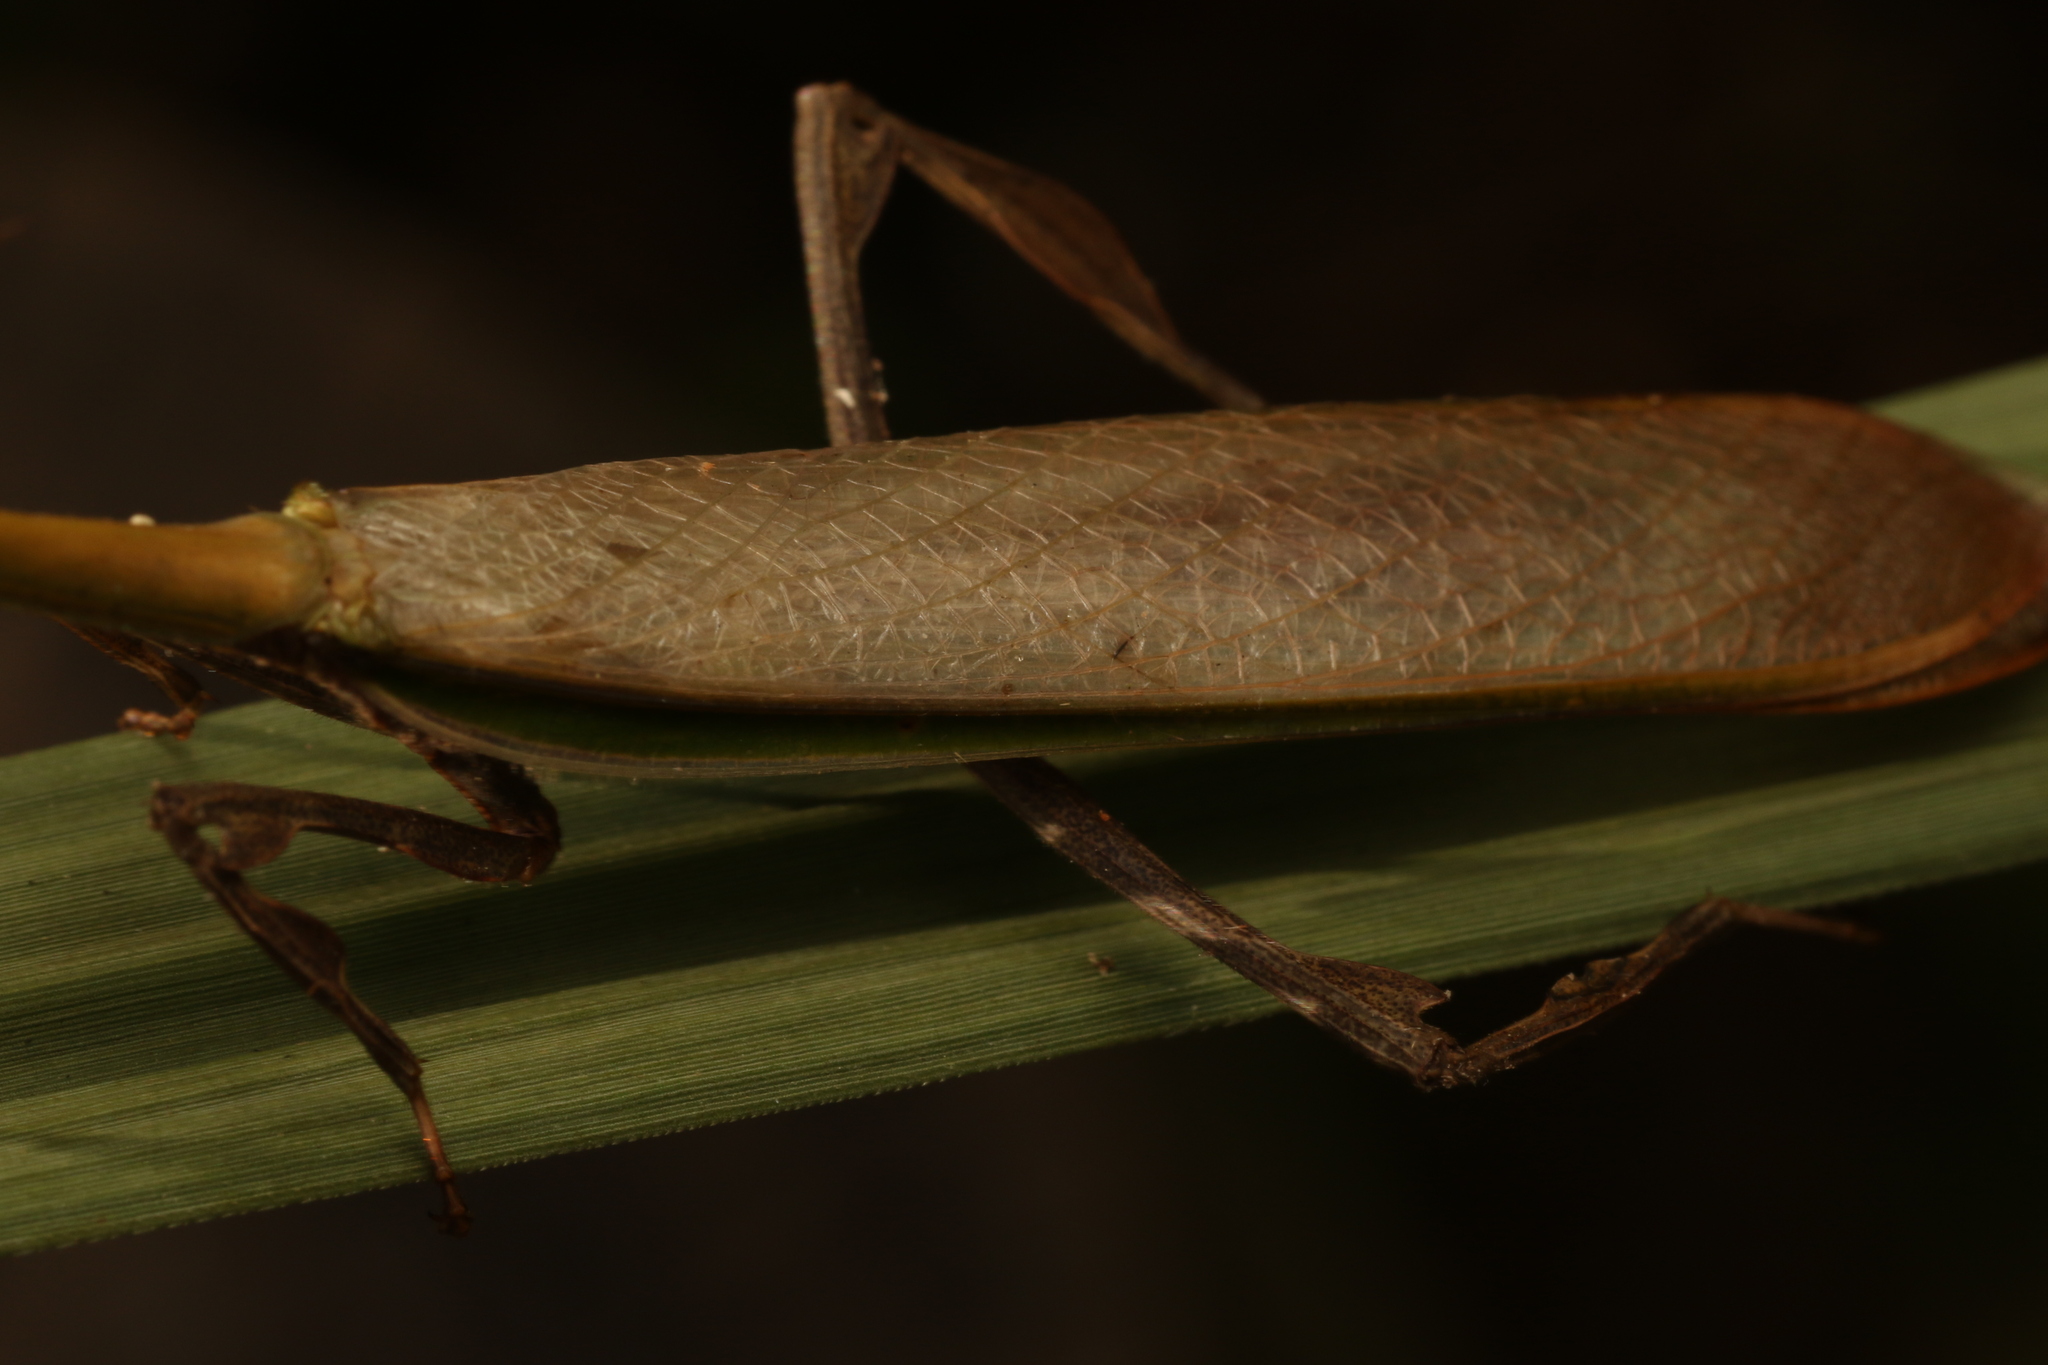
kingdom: Animalia
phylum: Arthropoda
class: Insecta
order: Mantodea
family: Mantidae
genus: Vates
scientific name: Vates phoenix
